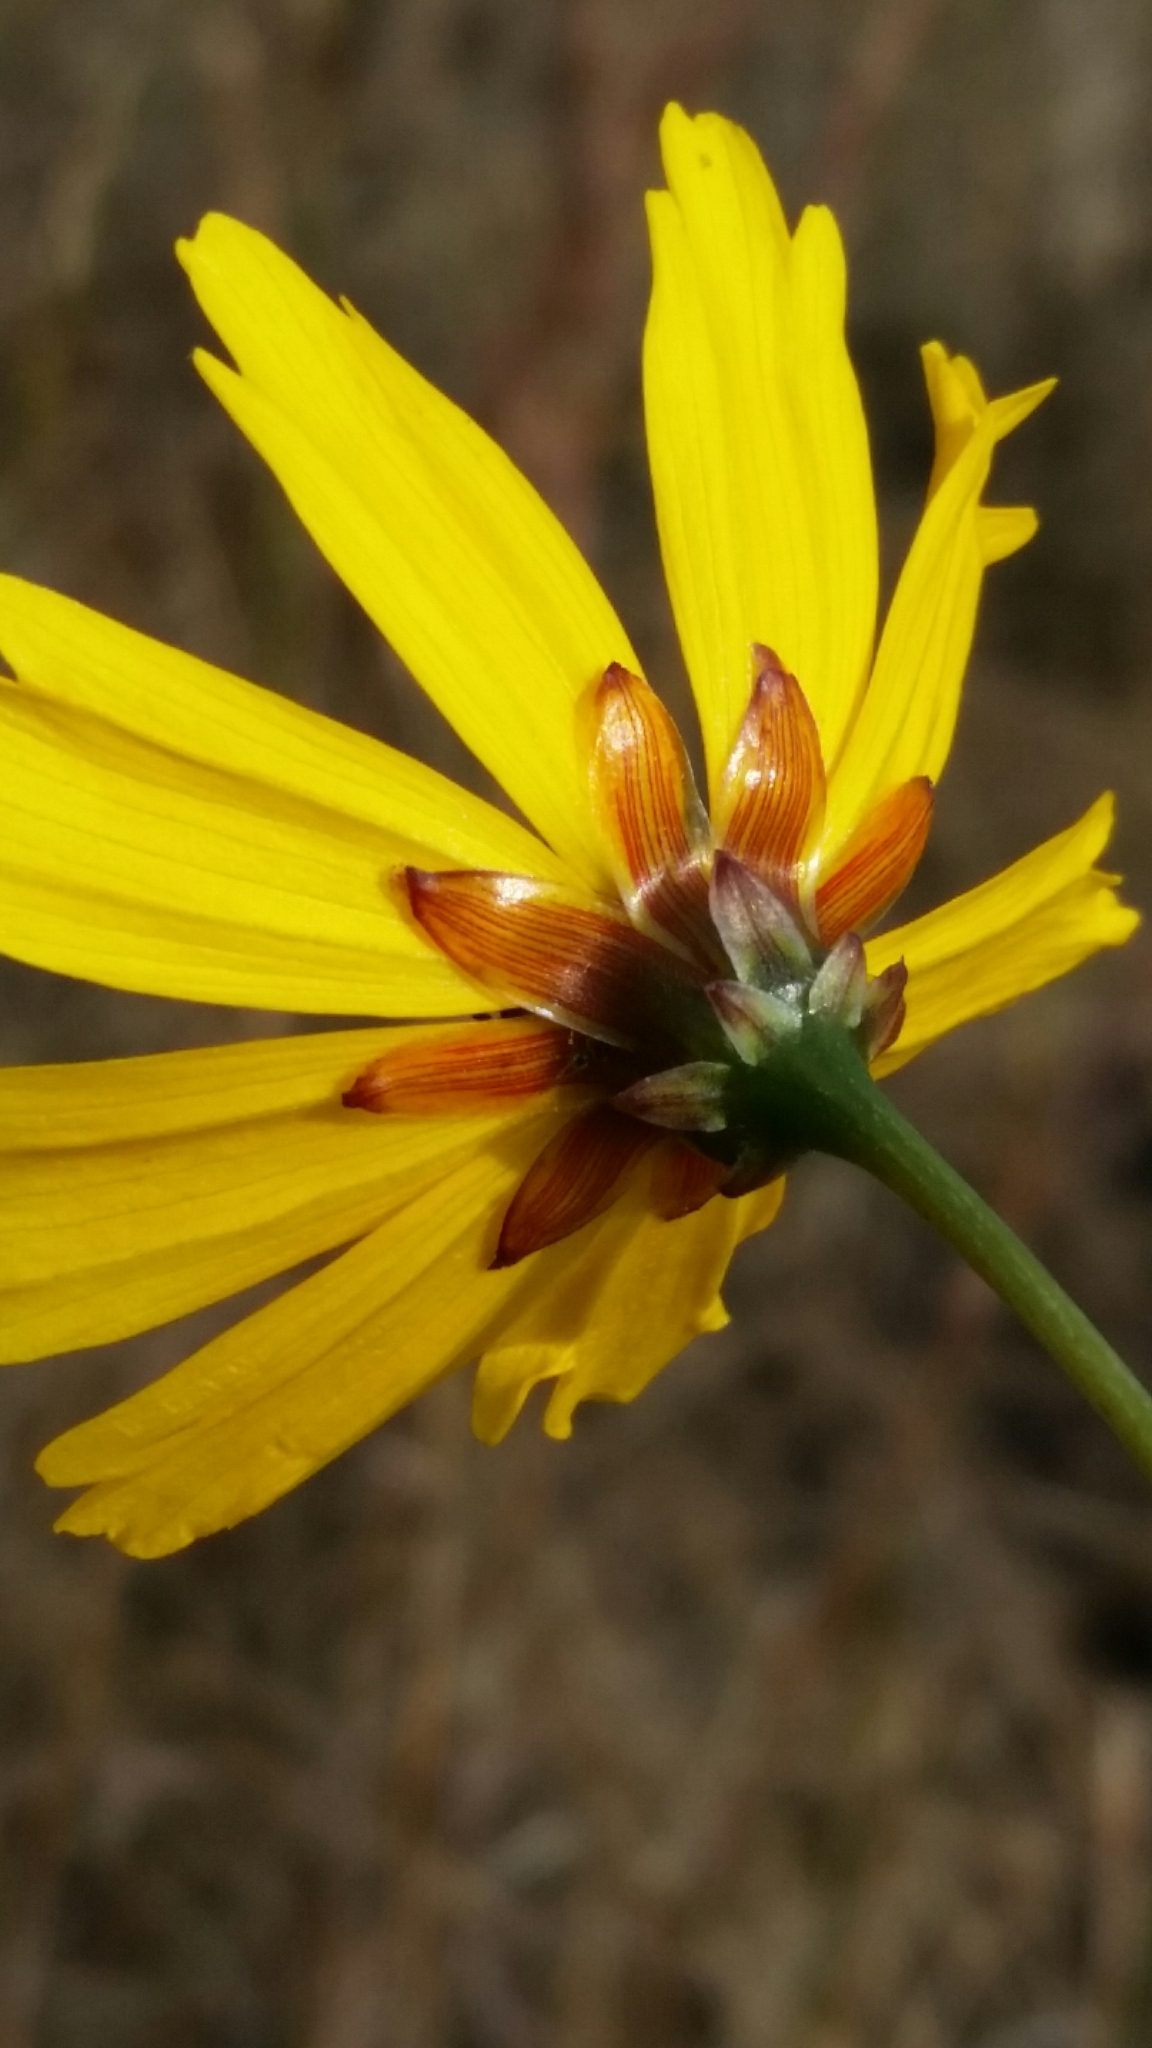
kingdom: Plantae
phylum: Tracheophyta
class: Magnoliopsida
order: Asterales
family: Asteraceae
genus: Coreopsis
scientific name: Coreopsis gladiata
